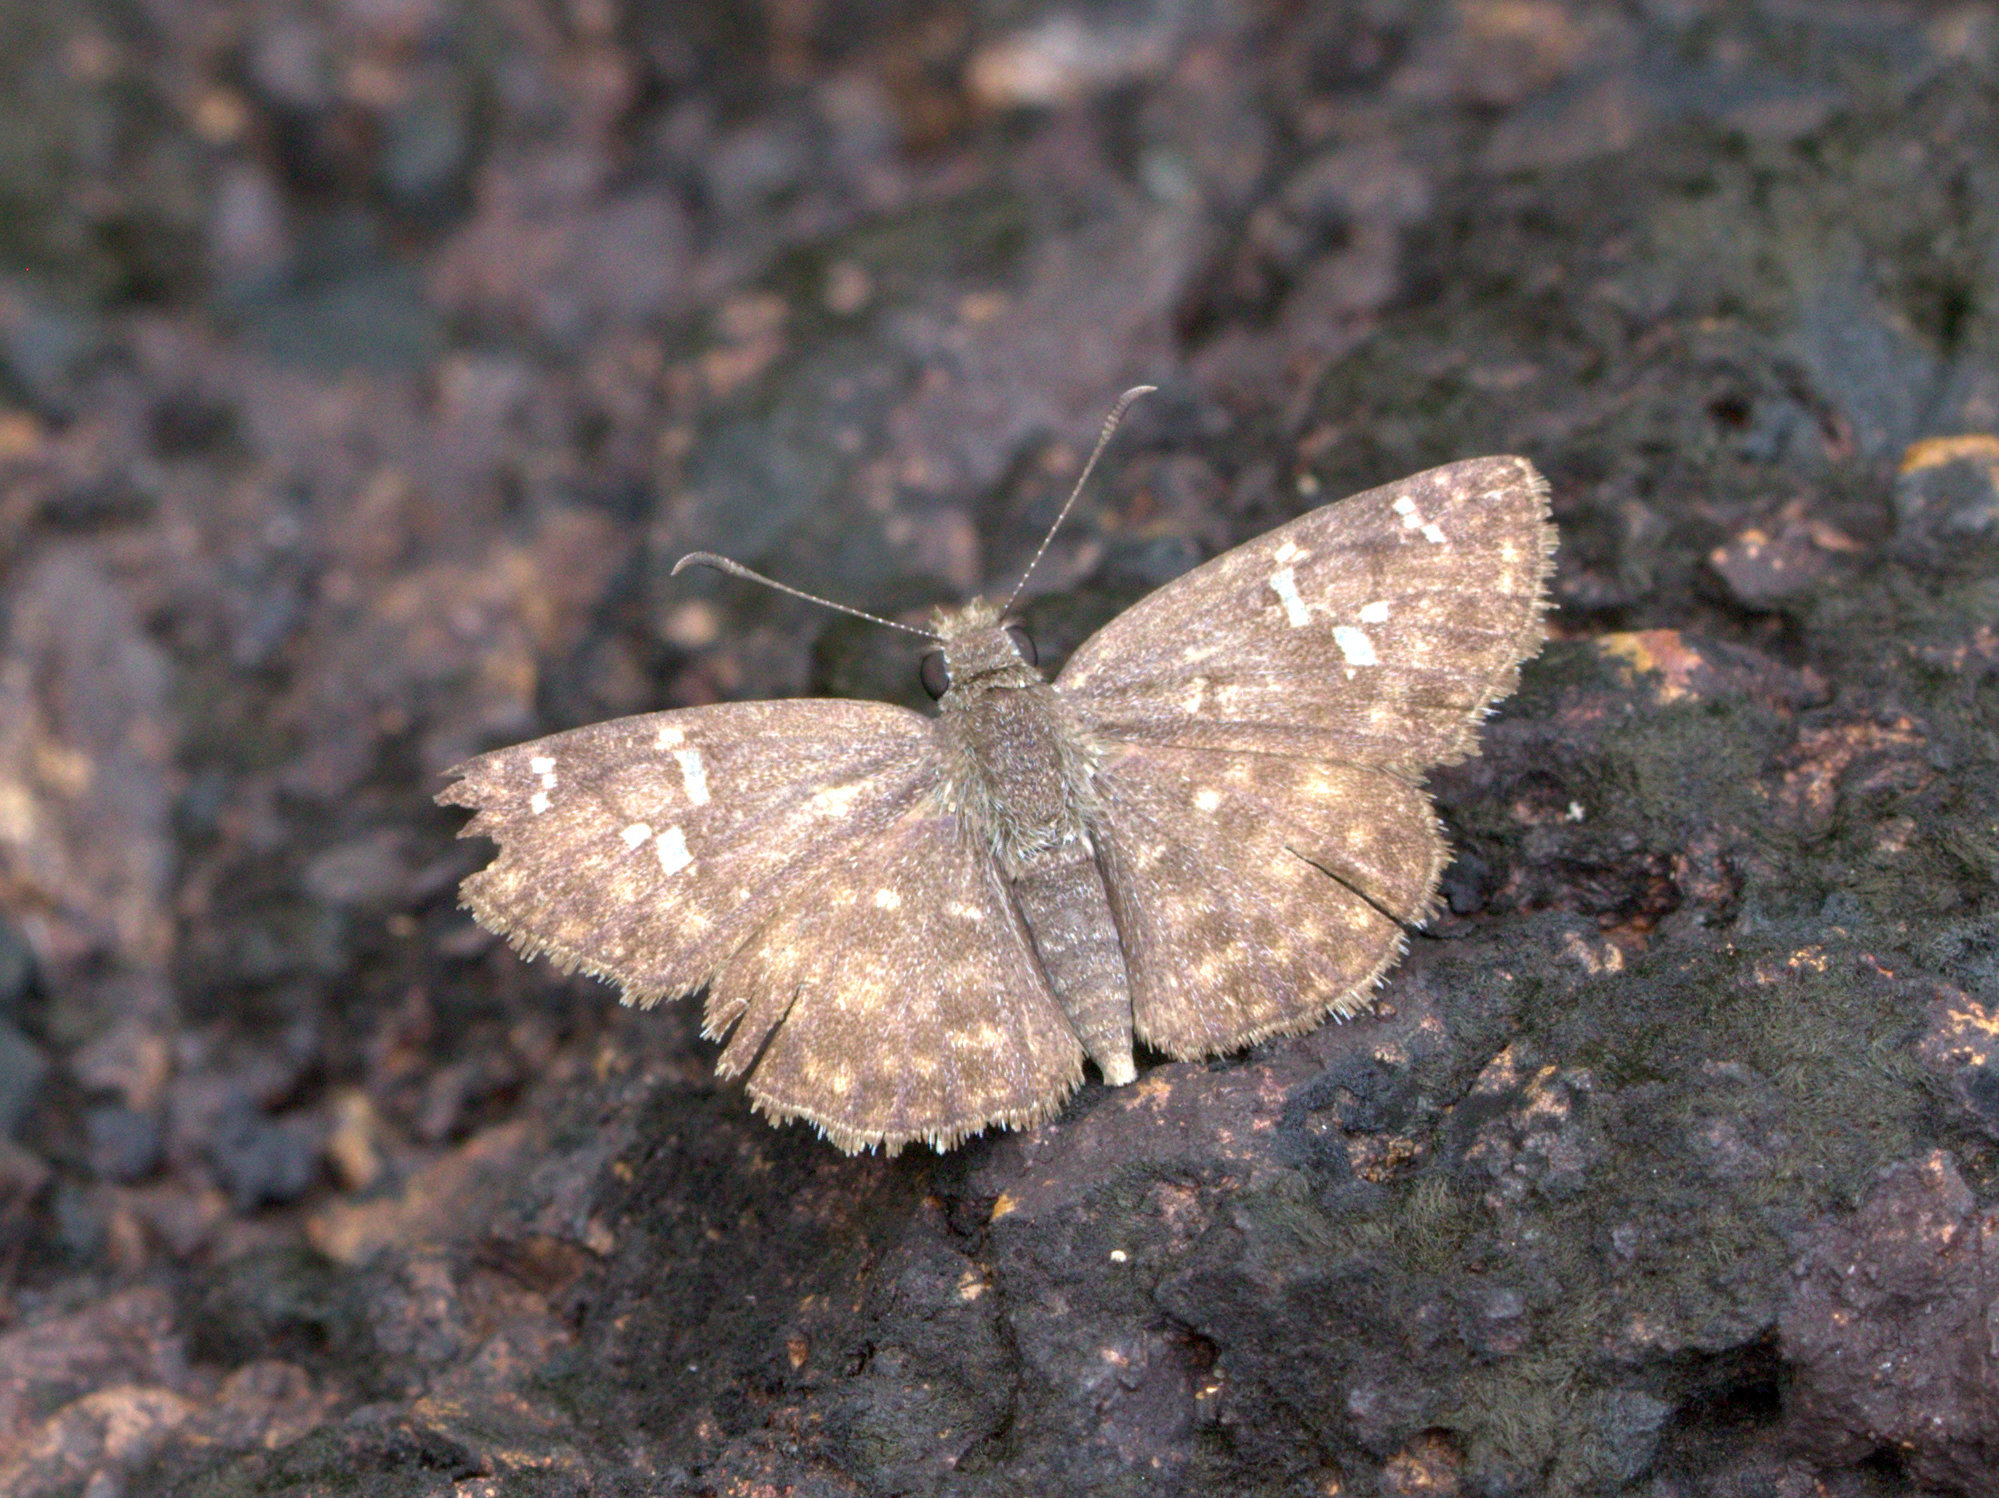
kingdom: Animalia
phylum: Arthropoda
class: Insecta
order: Lepidoptera
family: Hesperiidae
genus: Sarangesa
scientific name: Sarangesa purendra
